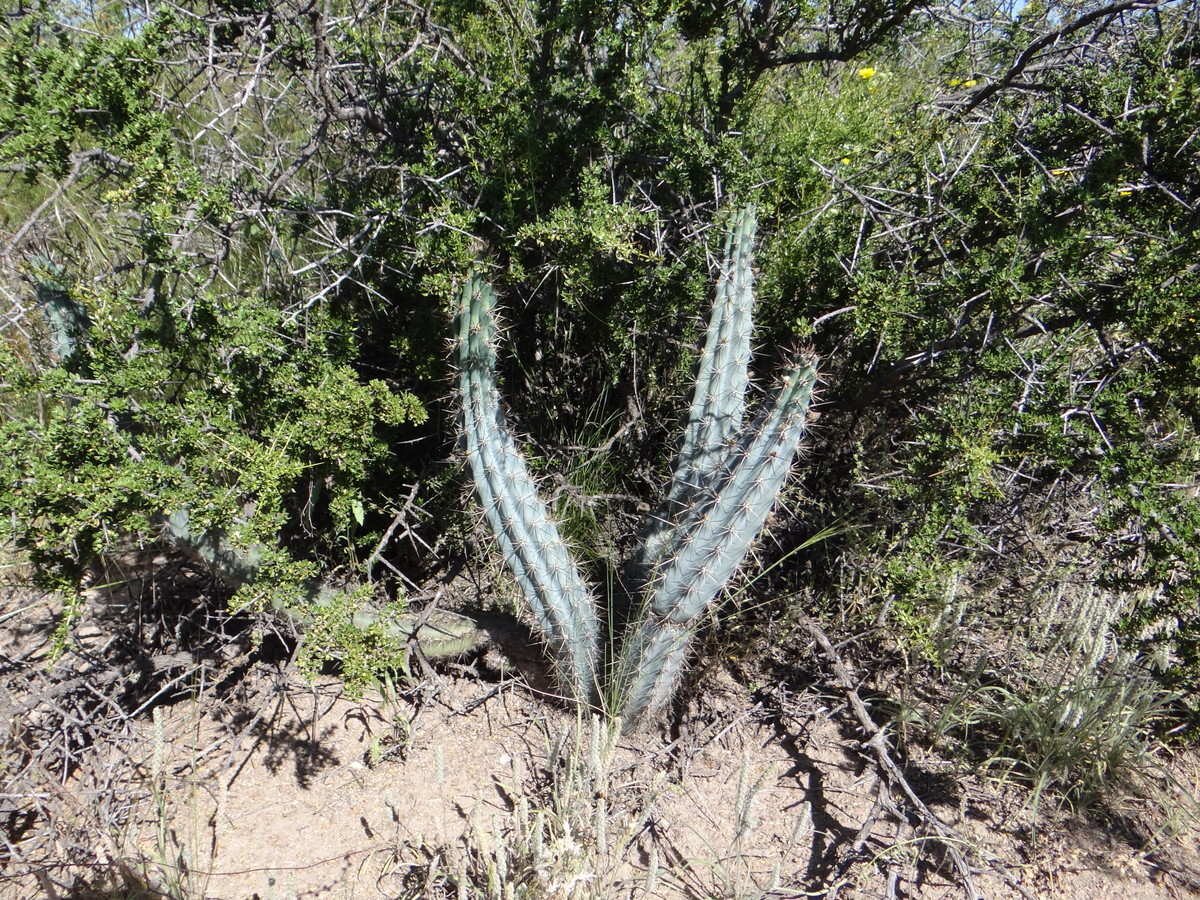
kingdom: Plantae
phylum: Tracheophyta
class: Magnoliopsida
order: Caryophyllales
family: Cactaceae
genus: Cereus
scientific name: Cereus aethiops
